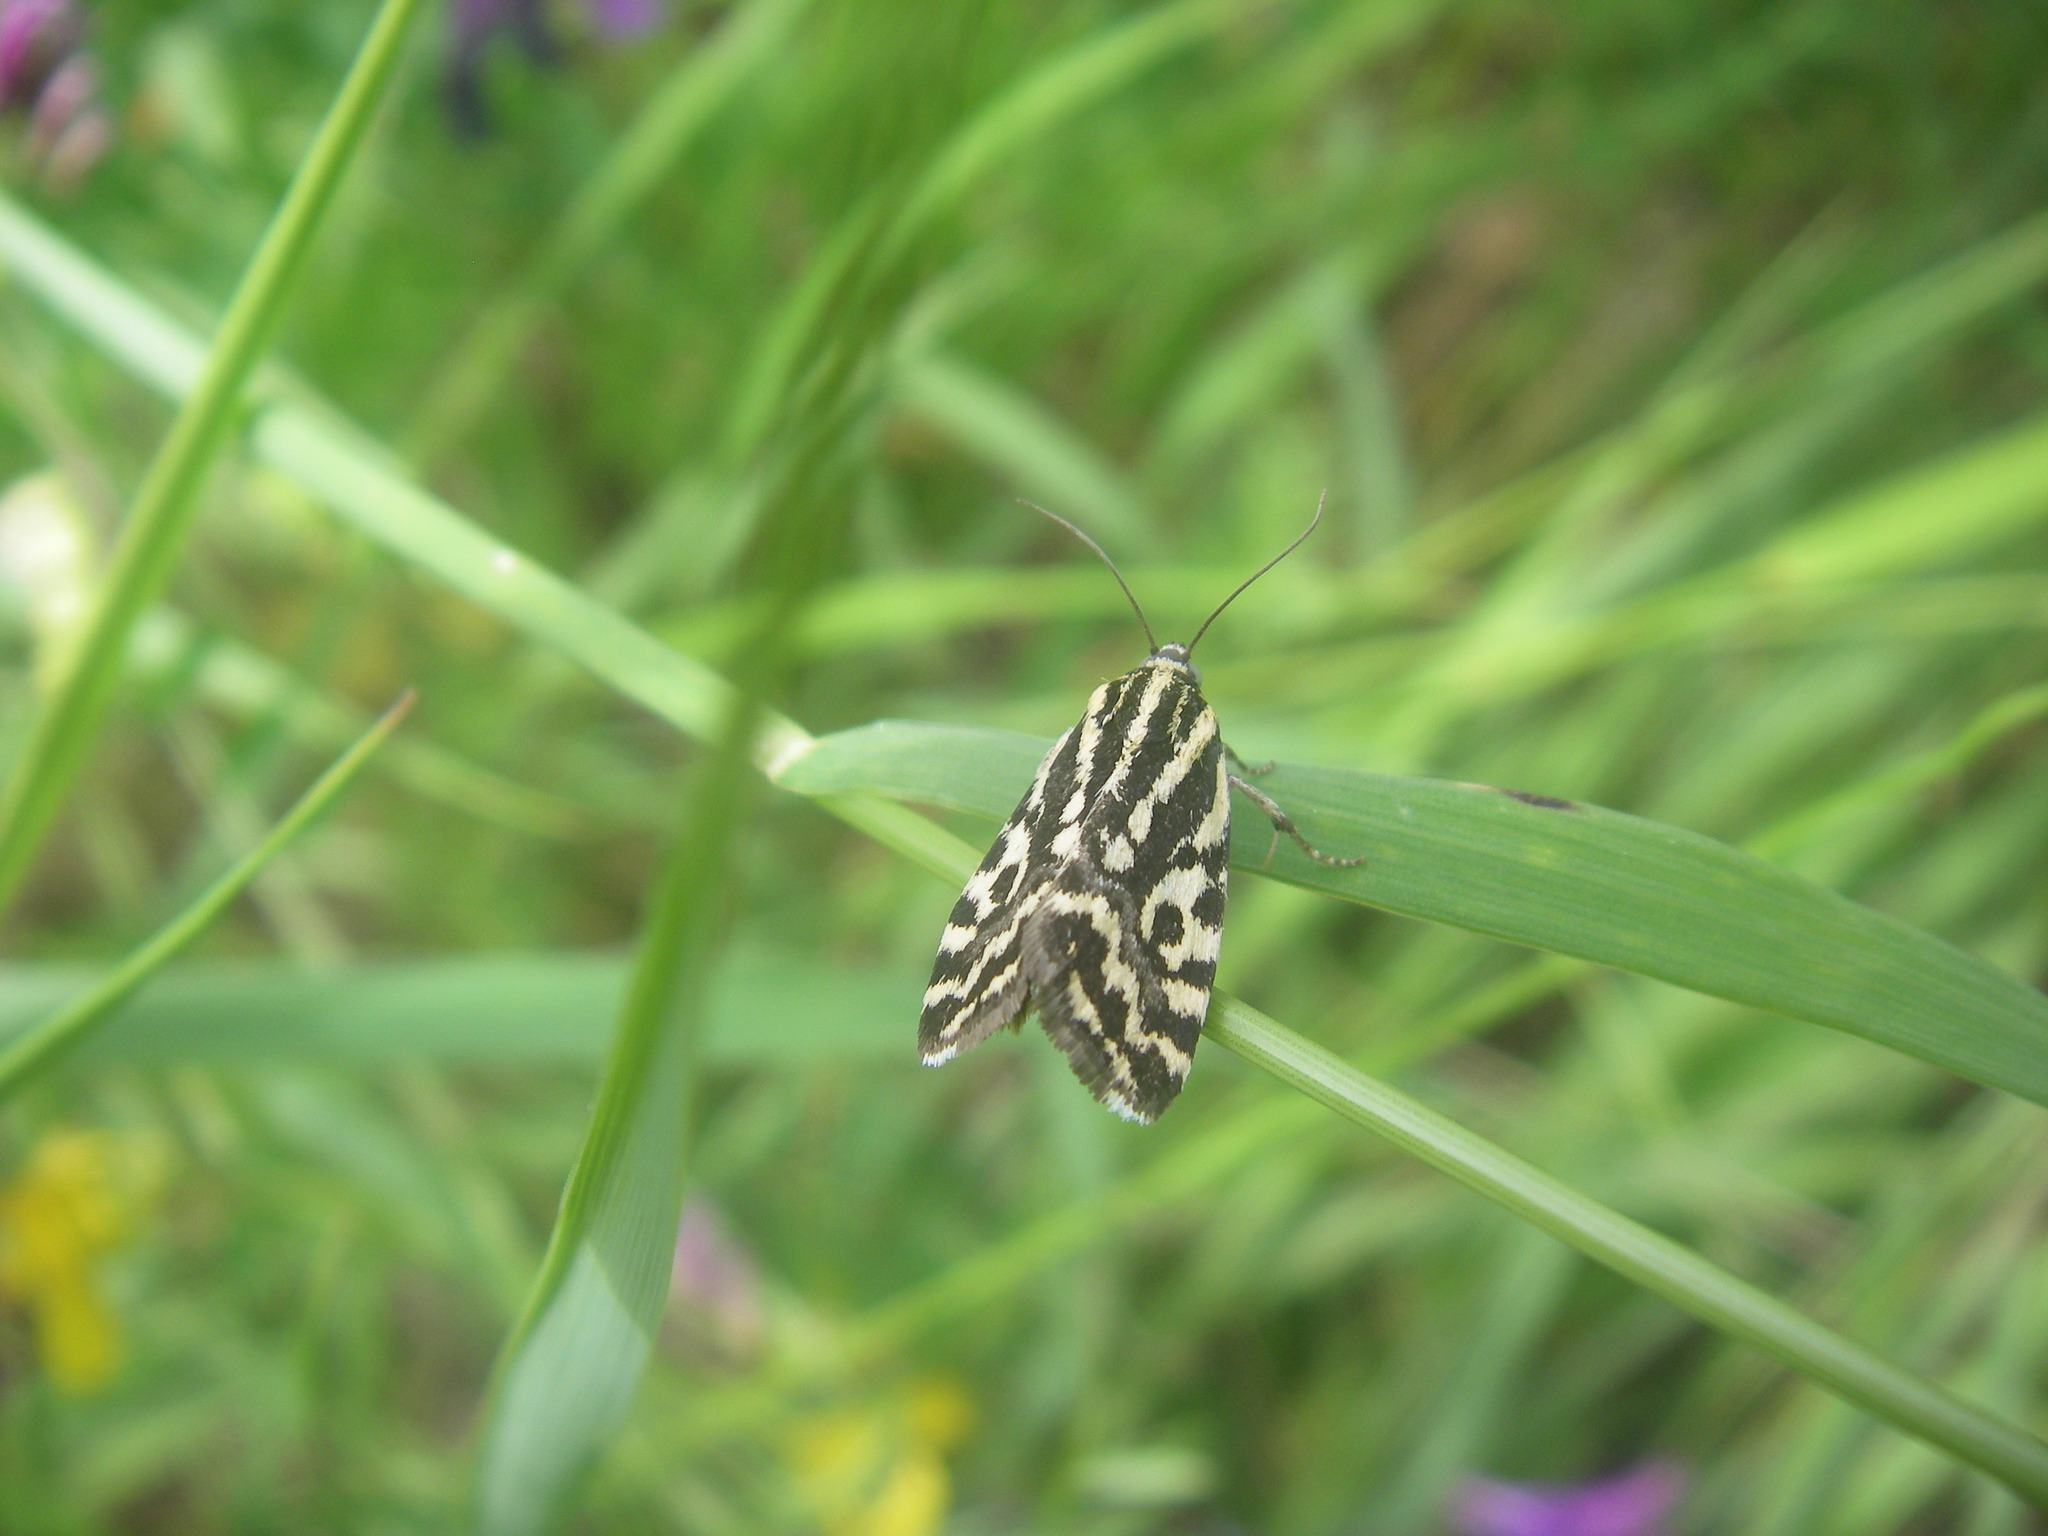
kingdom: Animalia
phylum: Arthropoda
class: Insecta
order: Lepidoptera
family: Noctuidae
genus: Acontia
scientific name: Acontia trabealis
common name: Spotted sulphur
